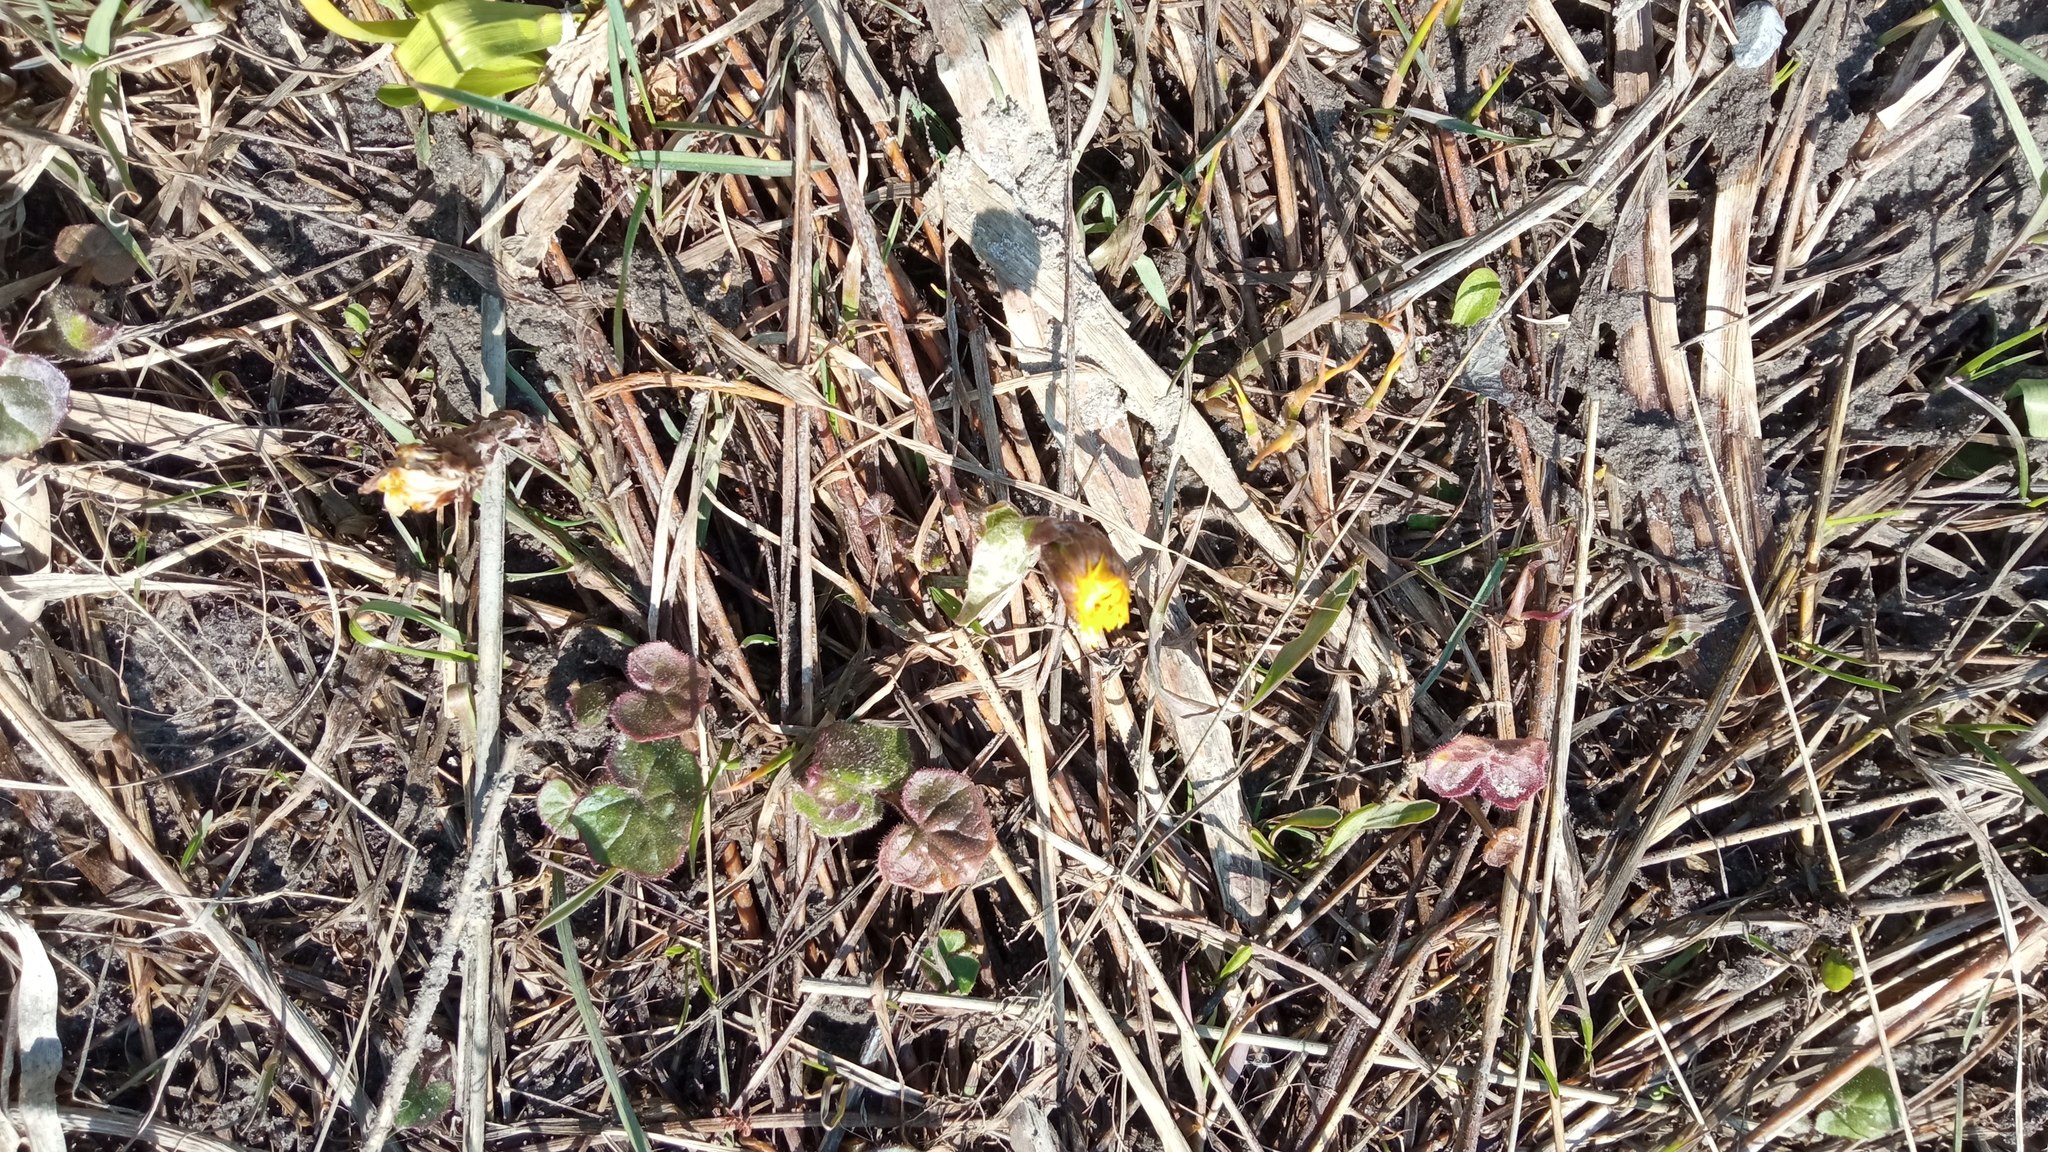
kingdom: Plantae
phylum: Tracheophyta
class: Magnoliopsida
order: Asterales
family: Asteraceae
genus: Tussilago
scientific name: Tussilago farfara
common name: Coltsfoot
